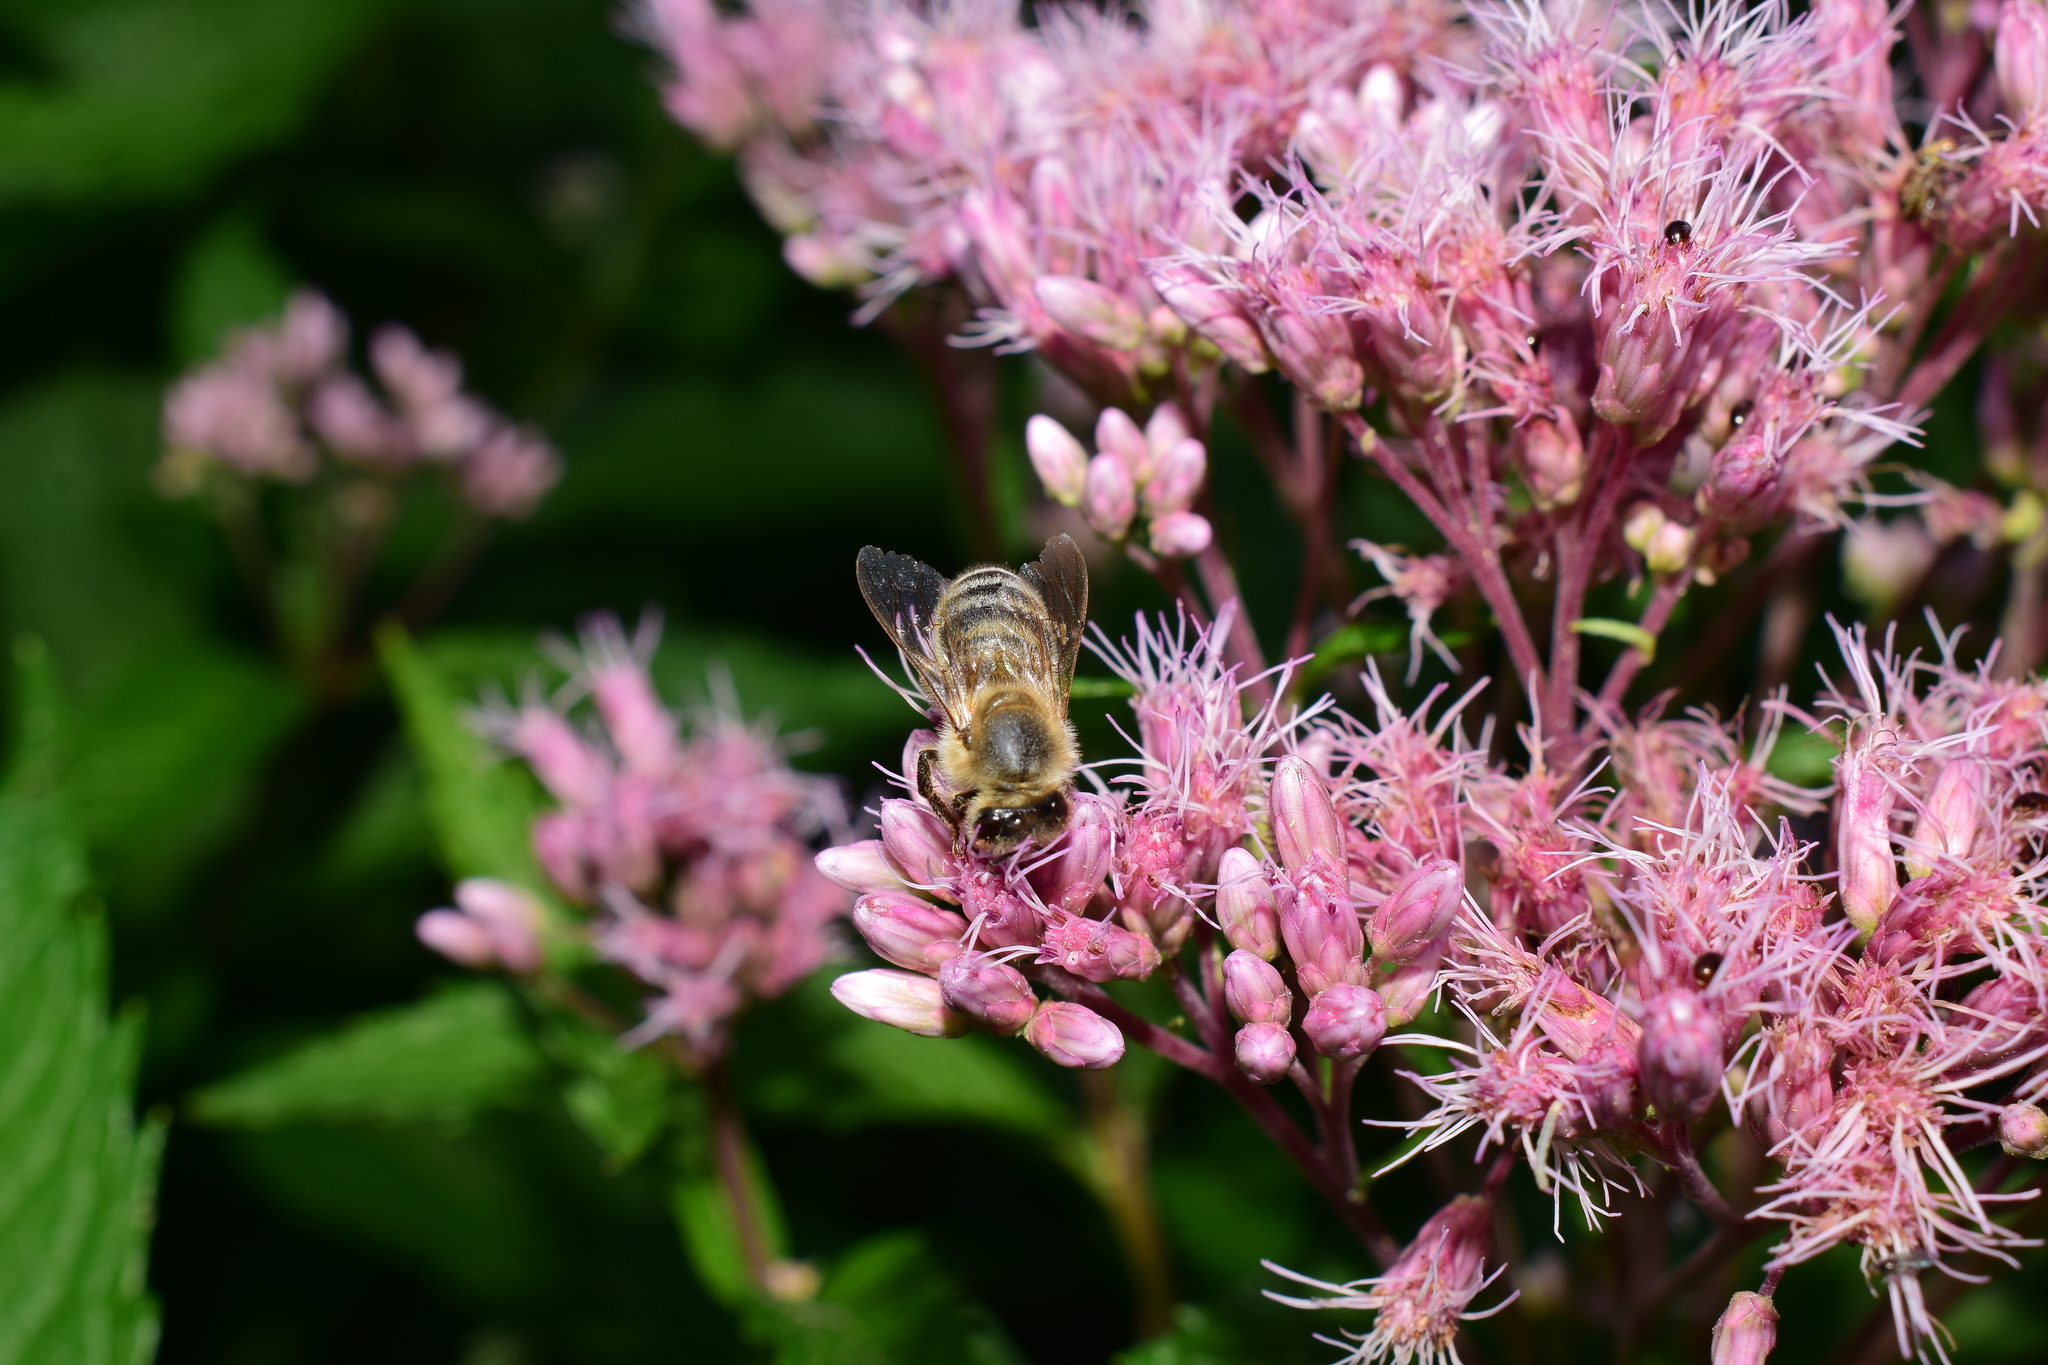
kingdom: Animalia
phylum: Arthropoda
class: Insecta
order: Hymenoptera
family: Apidae
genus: Apis
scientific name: Apis mellifera
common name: Honey bee
